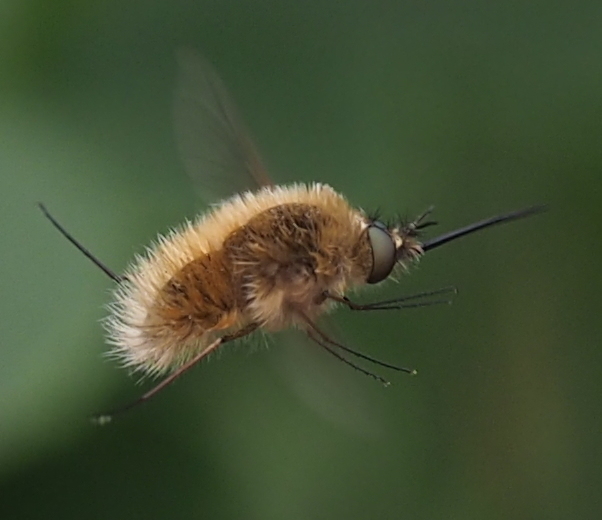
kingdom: Animalia
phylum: Arthropoda
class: Insecta
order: Diptera
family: Bombyliidae
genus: Bombylius
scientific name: Bombylius canescens
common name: Western bee-fly
